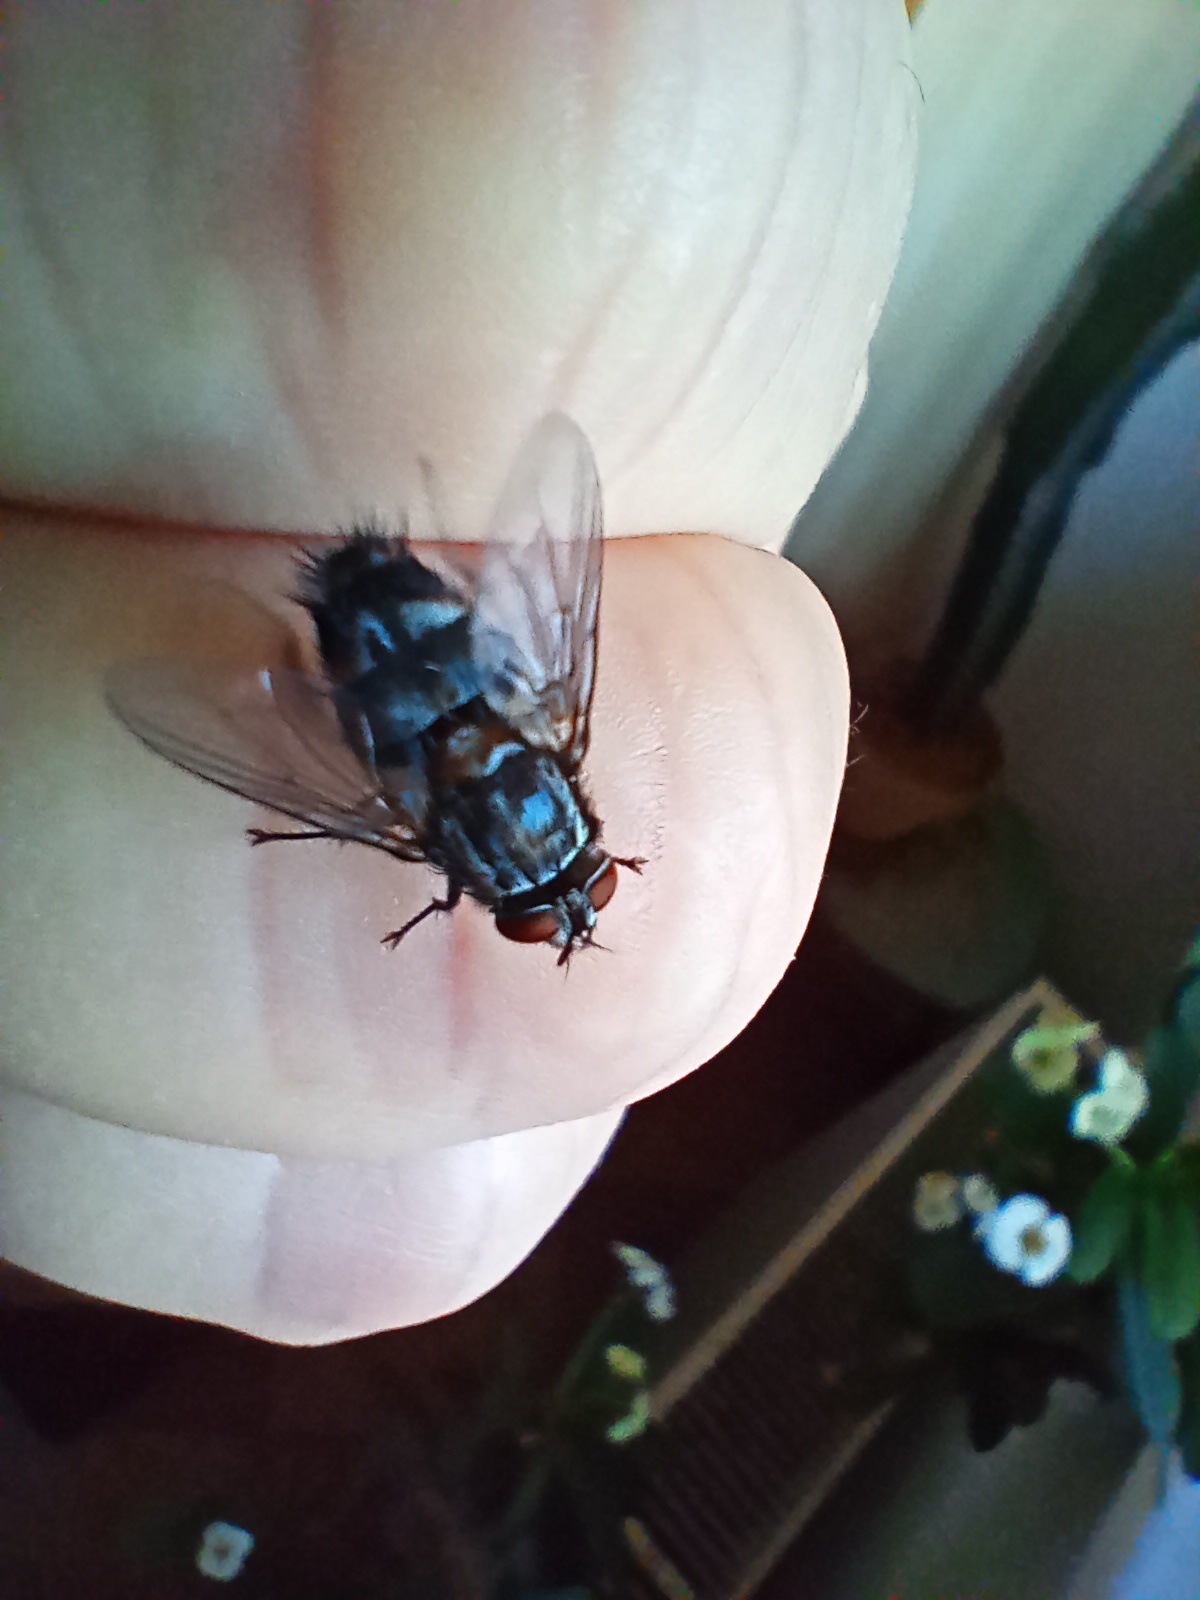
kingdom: Animalia
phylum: Arthropoda
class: Insecta
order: Diptera
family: Tachinidae
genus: Sturmia
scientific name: Sturmia bella
